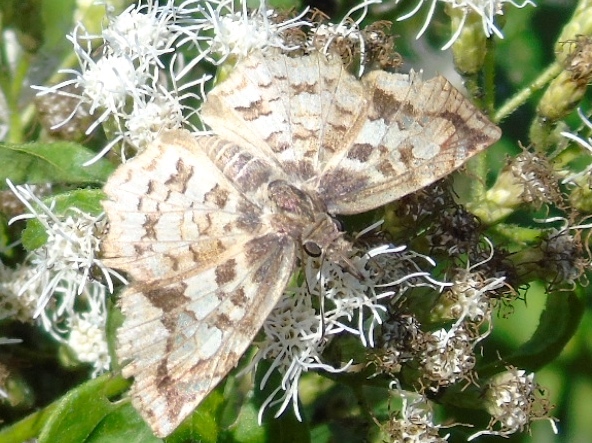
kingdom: Animalia
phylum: Arthropoda
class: Insecta
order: Lepidoptera
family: Hesperiidae
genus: Antigonus
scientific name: Antigonus erosus
